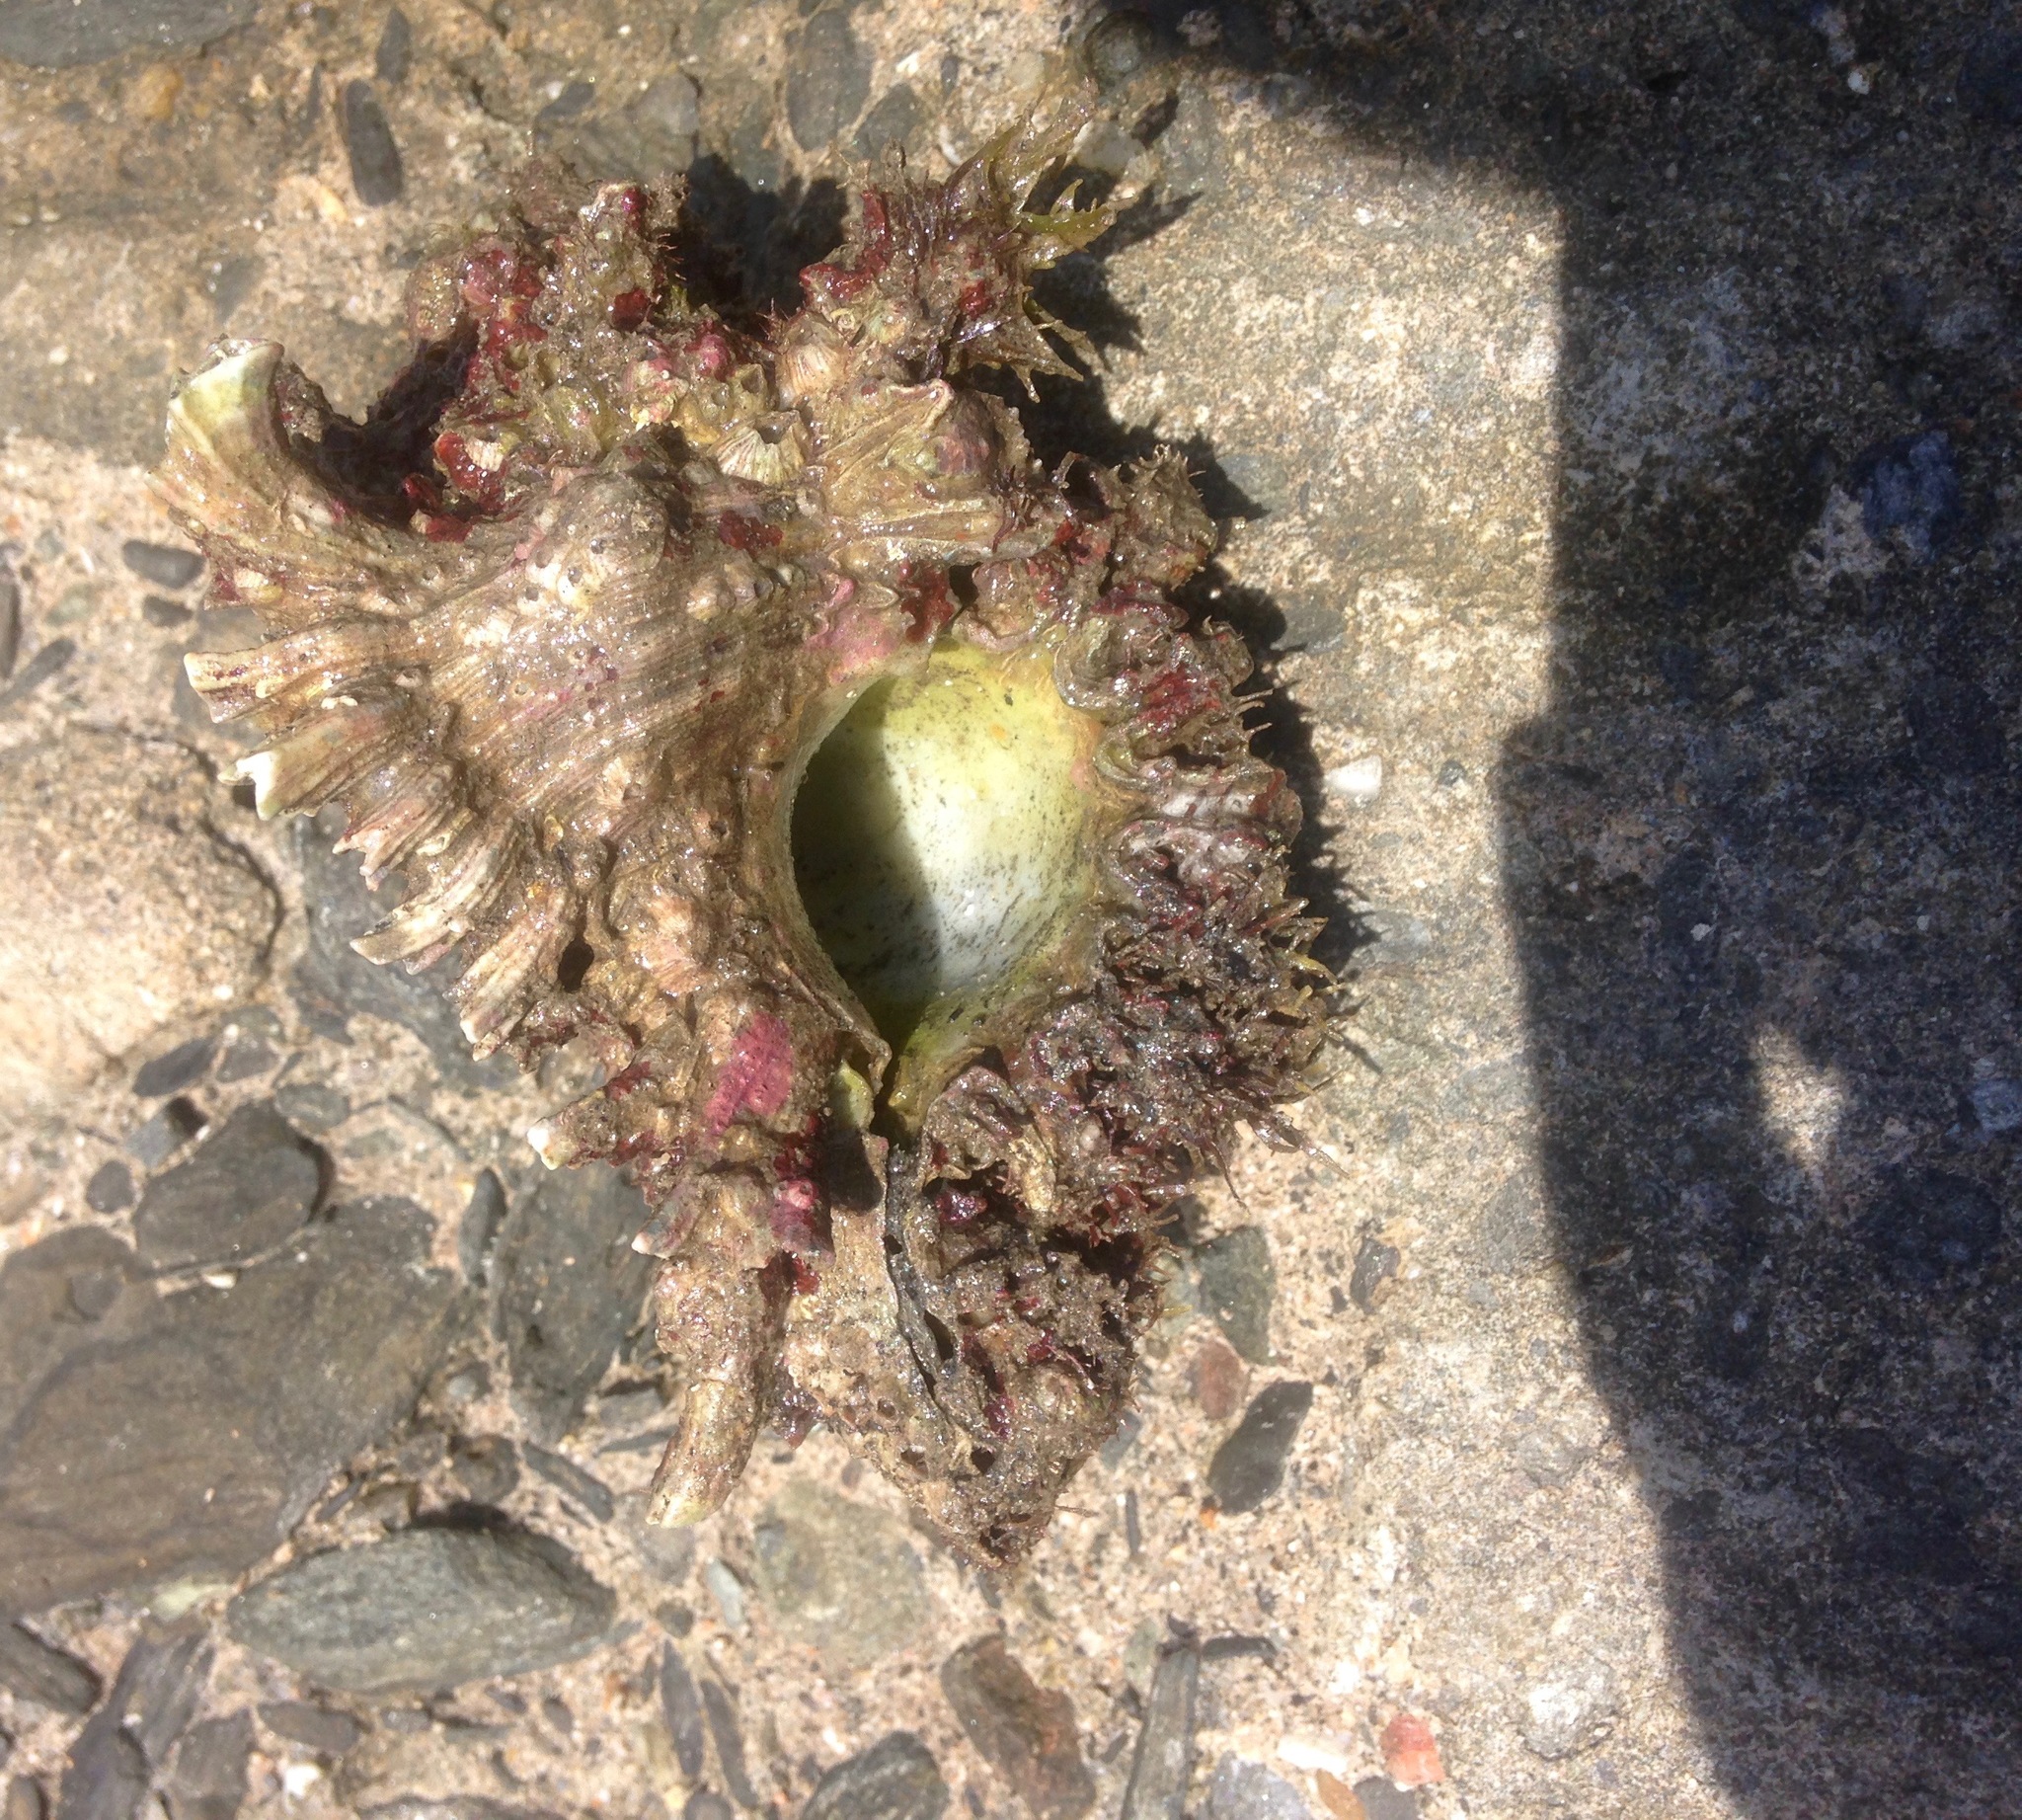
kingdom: Animalia
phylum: Mollusca
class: Gastropoda
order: Neogastropoda
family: Muricidae
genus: Chicoreus
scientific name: Chicoreus brevifrons
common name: West indian murex
